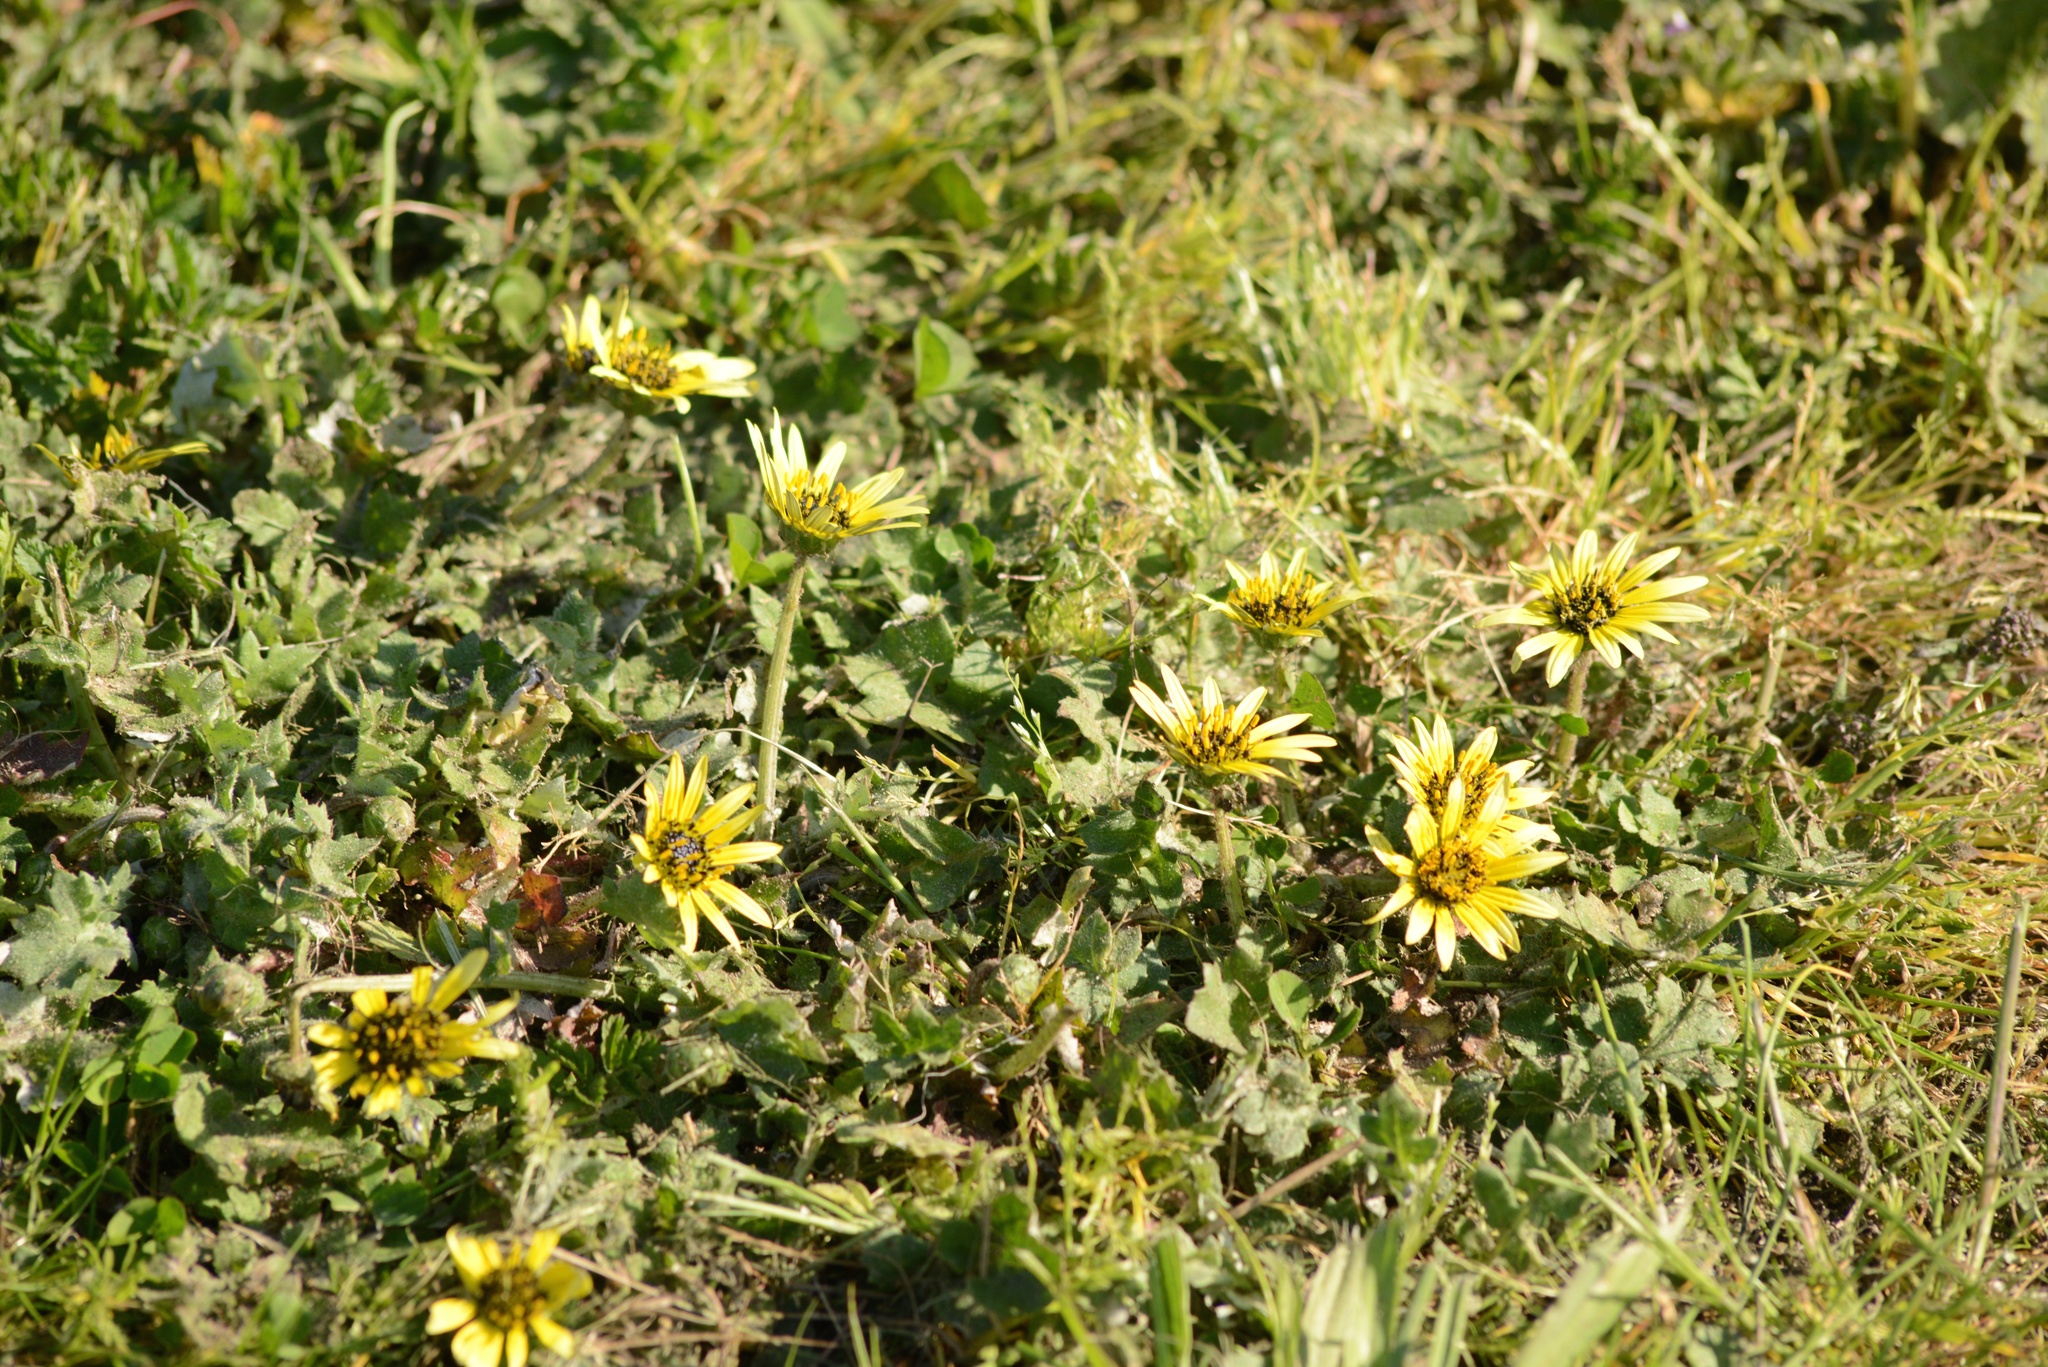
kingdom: Plantae
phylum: Tracheophyta
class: Magnoliopsida
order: Asterales
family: Asteraceae
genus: Arctotheca
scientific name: Arctotheca calendula
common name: Capeweed
